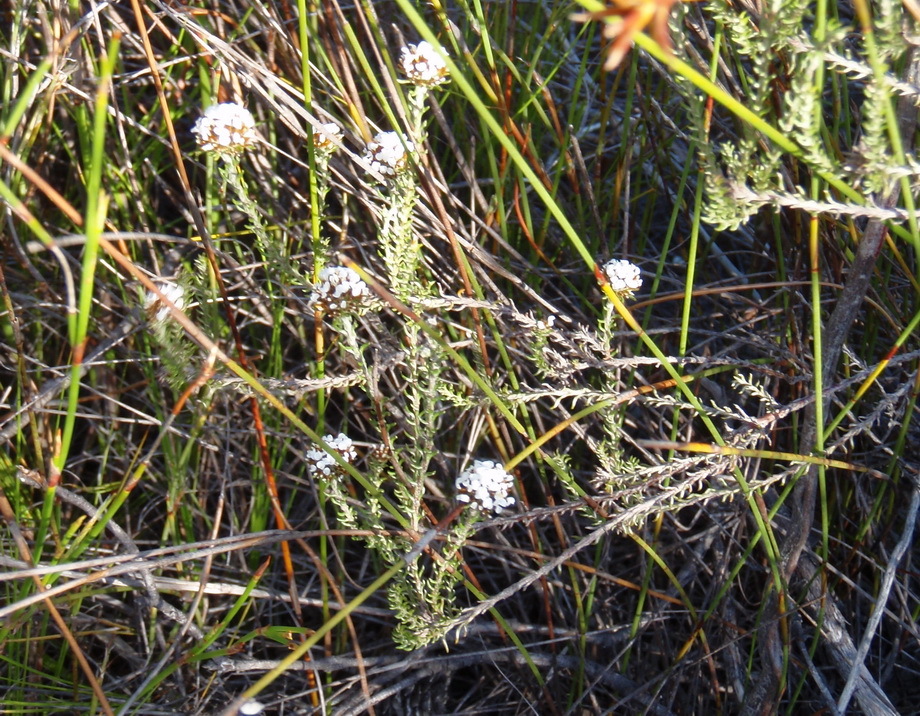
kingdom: Plantae
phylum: Tracheophyta
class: Magnoliopsida
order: Asterales
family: Asteraceae
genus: Disparago
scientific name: Disparago anomala
